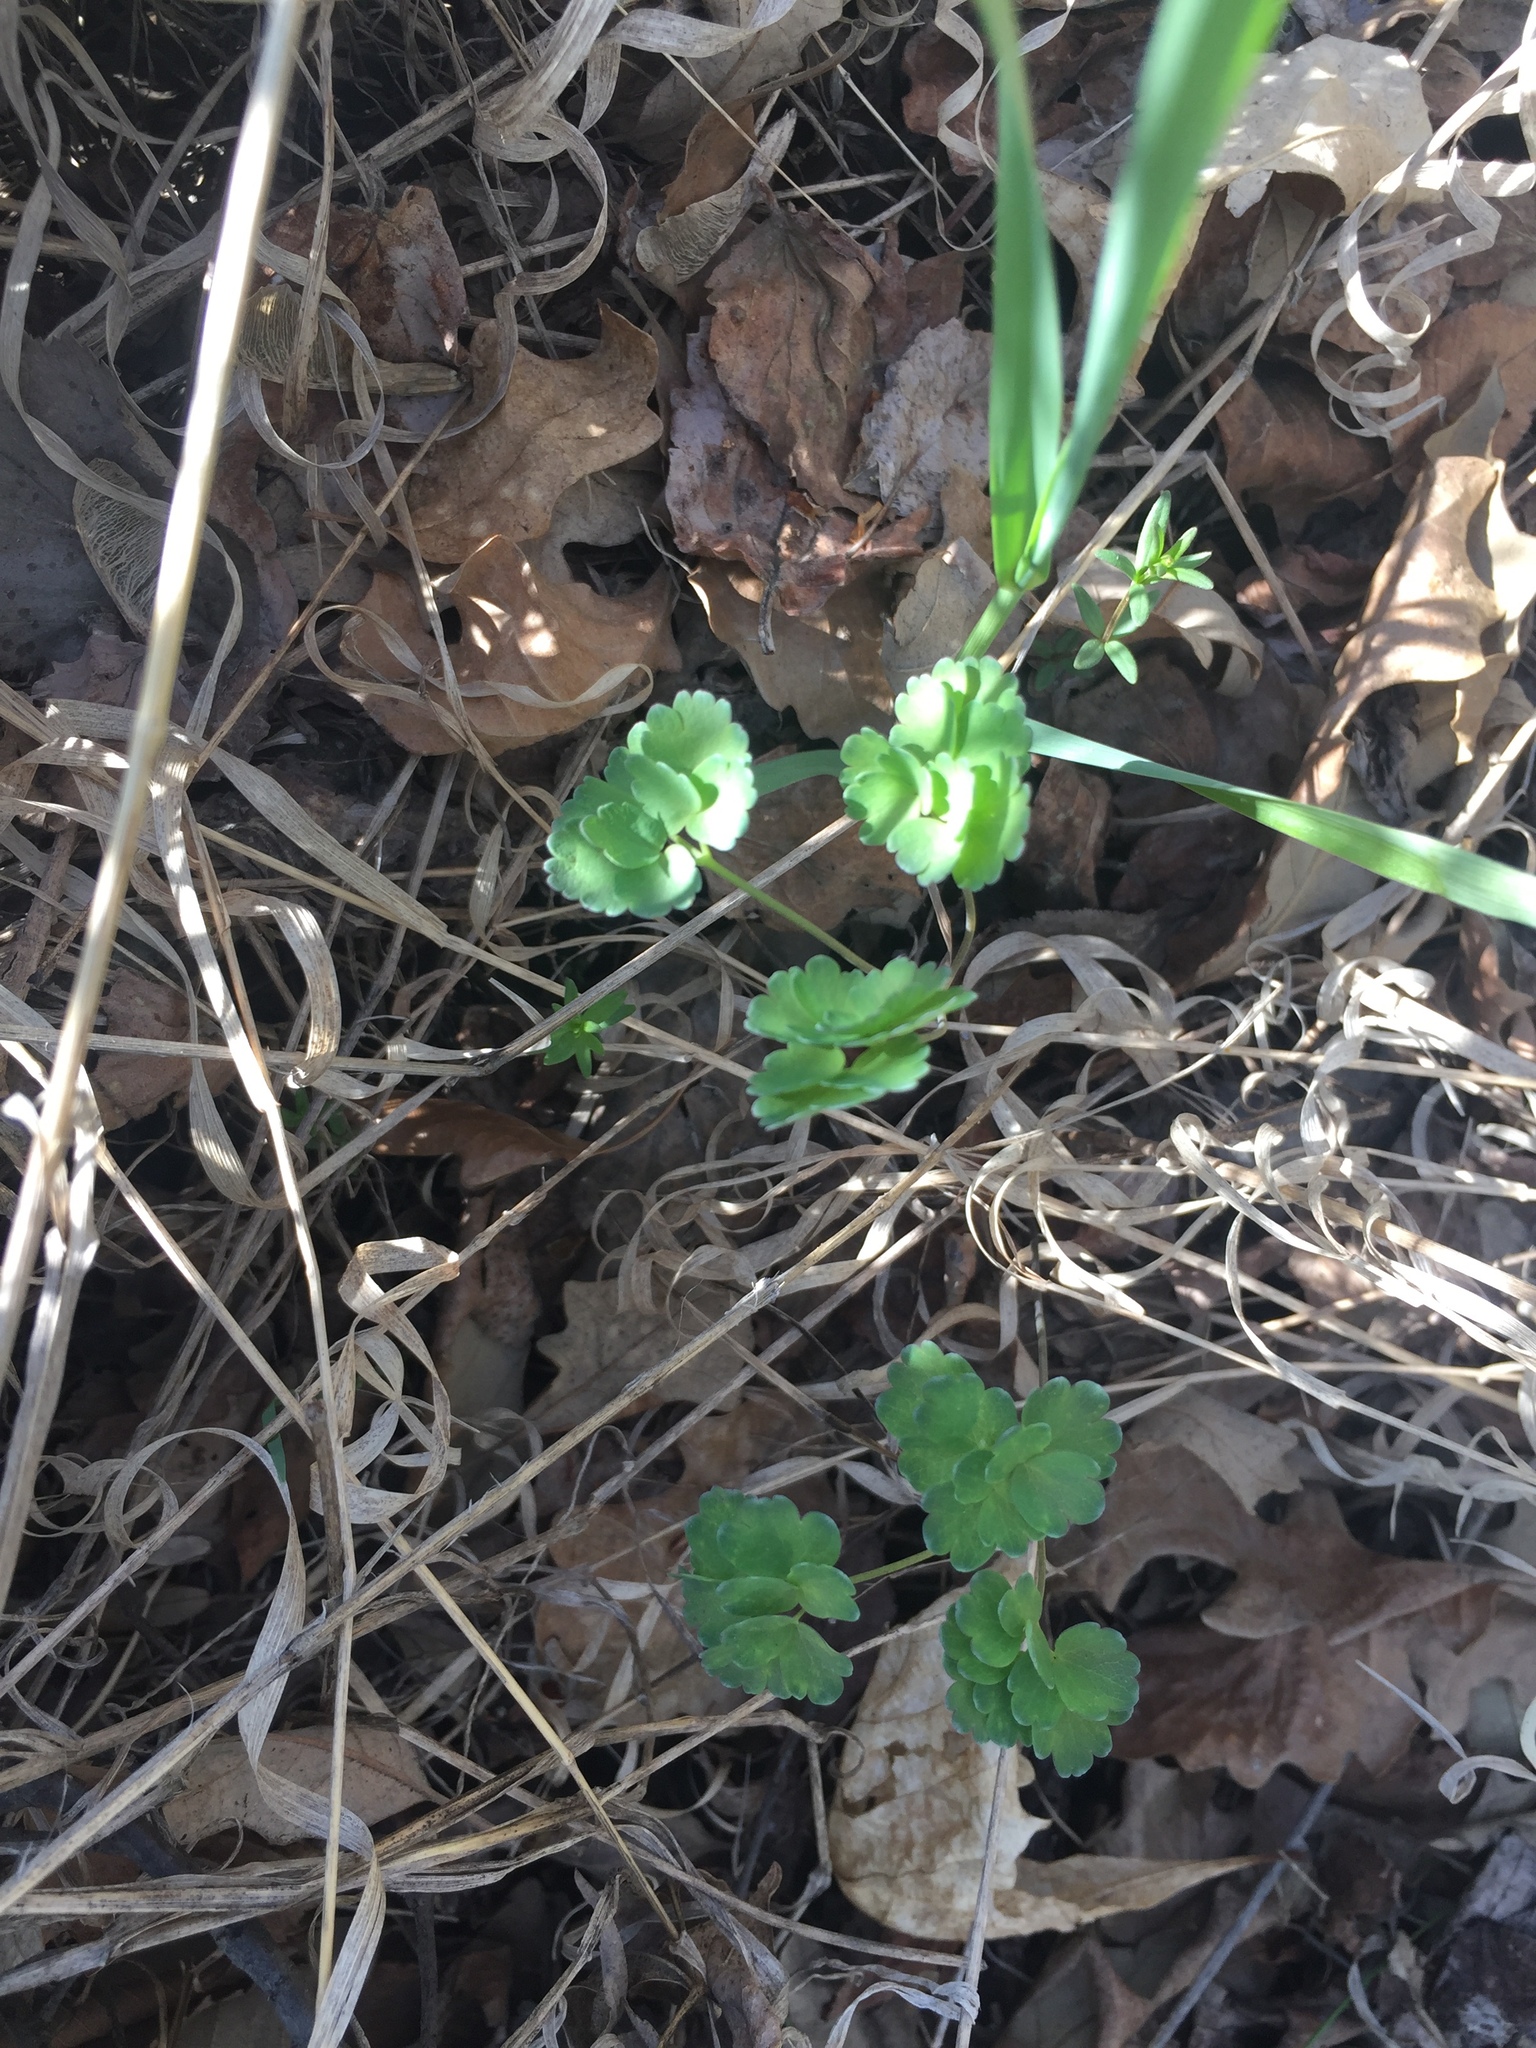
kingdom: Plantae
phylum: Tracheophyta
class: Magnoliopsida
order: Ranunculales
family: Ranunculaceae
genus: Thalictrum
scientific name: Thalictrum venulosum
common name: Early meadow-rue
